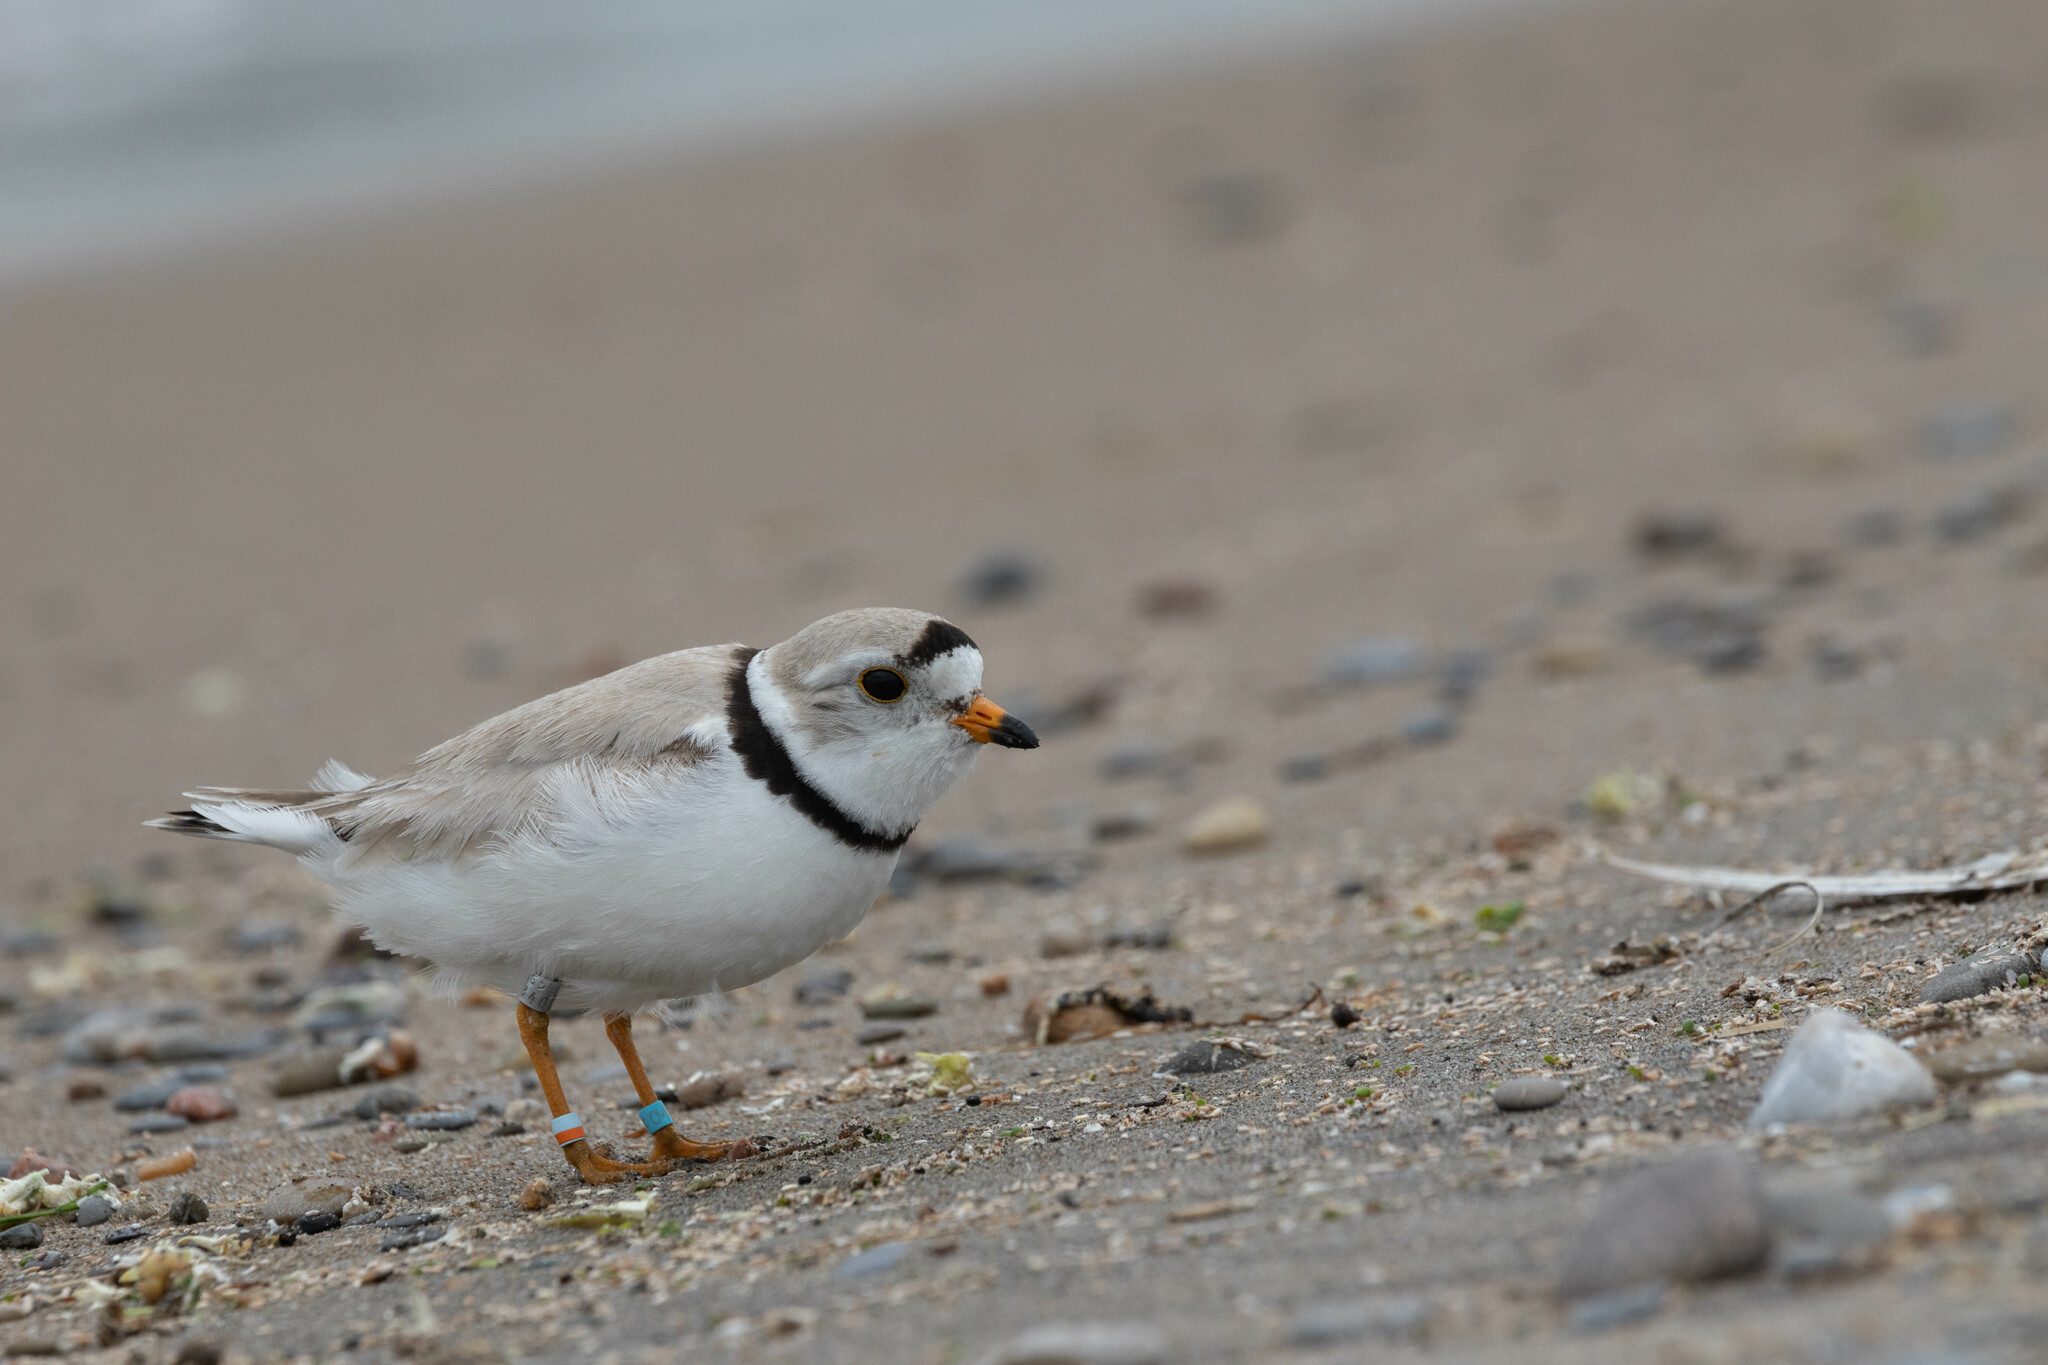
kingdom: Animalia
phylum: Chordata
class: Aves
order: Charadriiformes
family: Charadriidae
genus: Charadrius
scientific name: Charadrius melodus
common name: Piping plover
